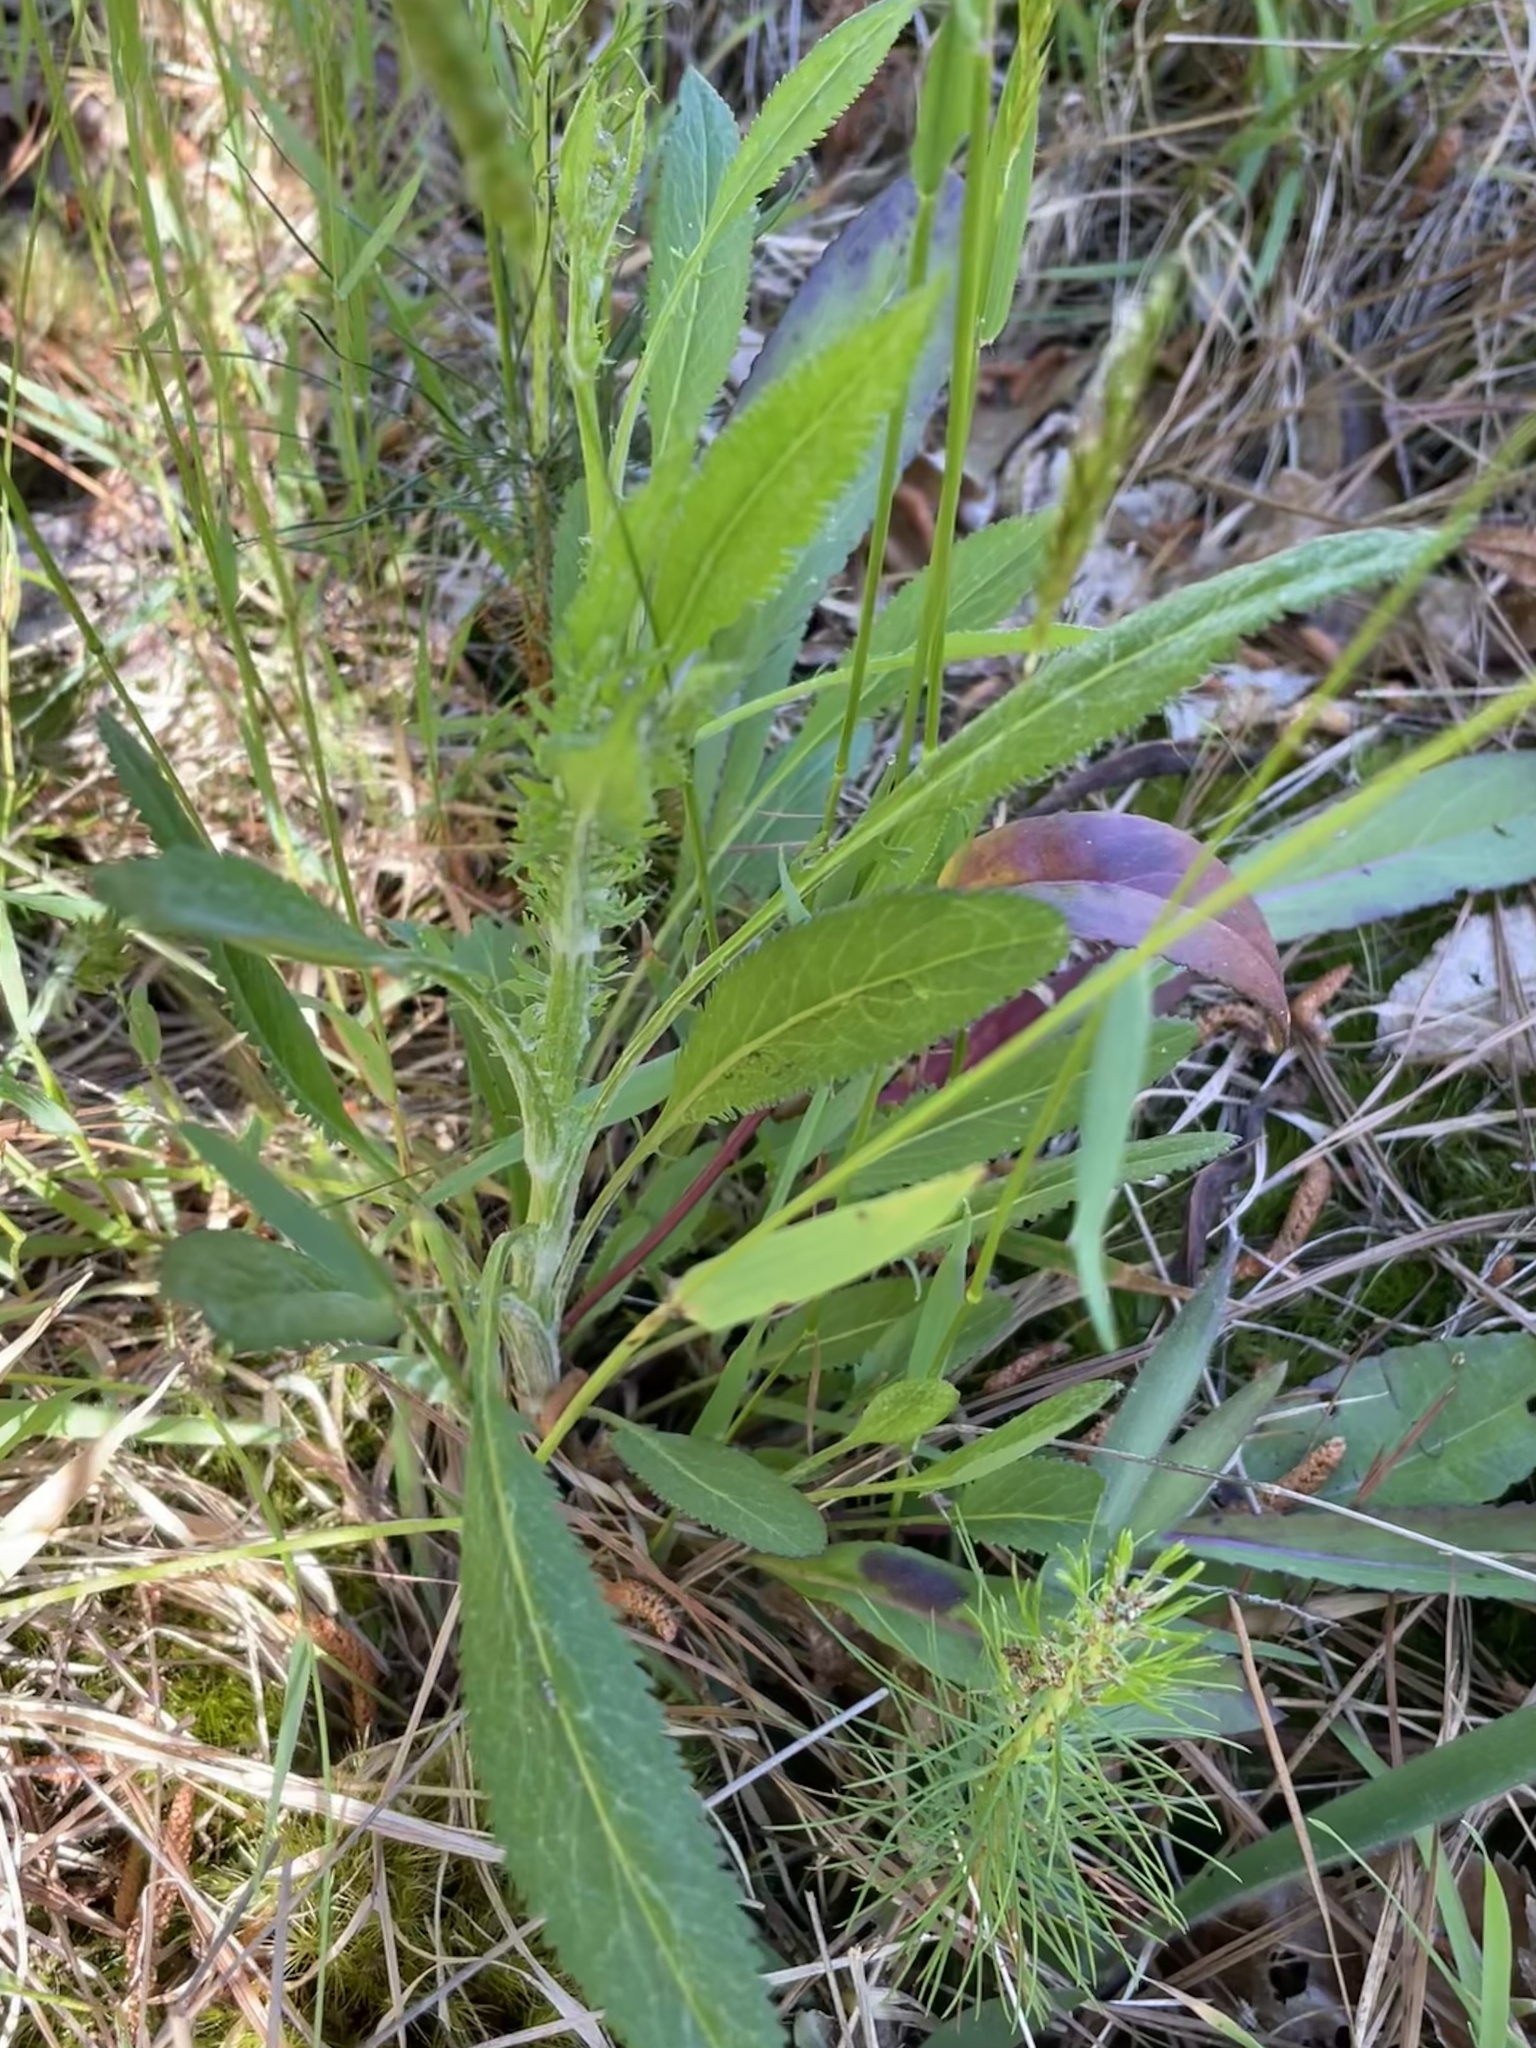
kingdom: Plantae
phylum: Tracheophyta
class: Magnoliopsida
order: Asterales
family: Asteraceae
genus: Packera
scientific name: Packera anonyma
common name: Small ragwort
